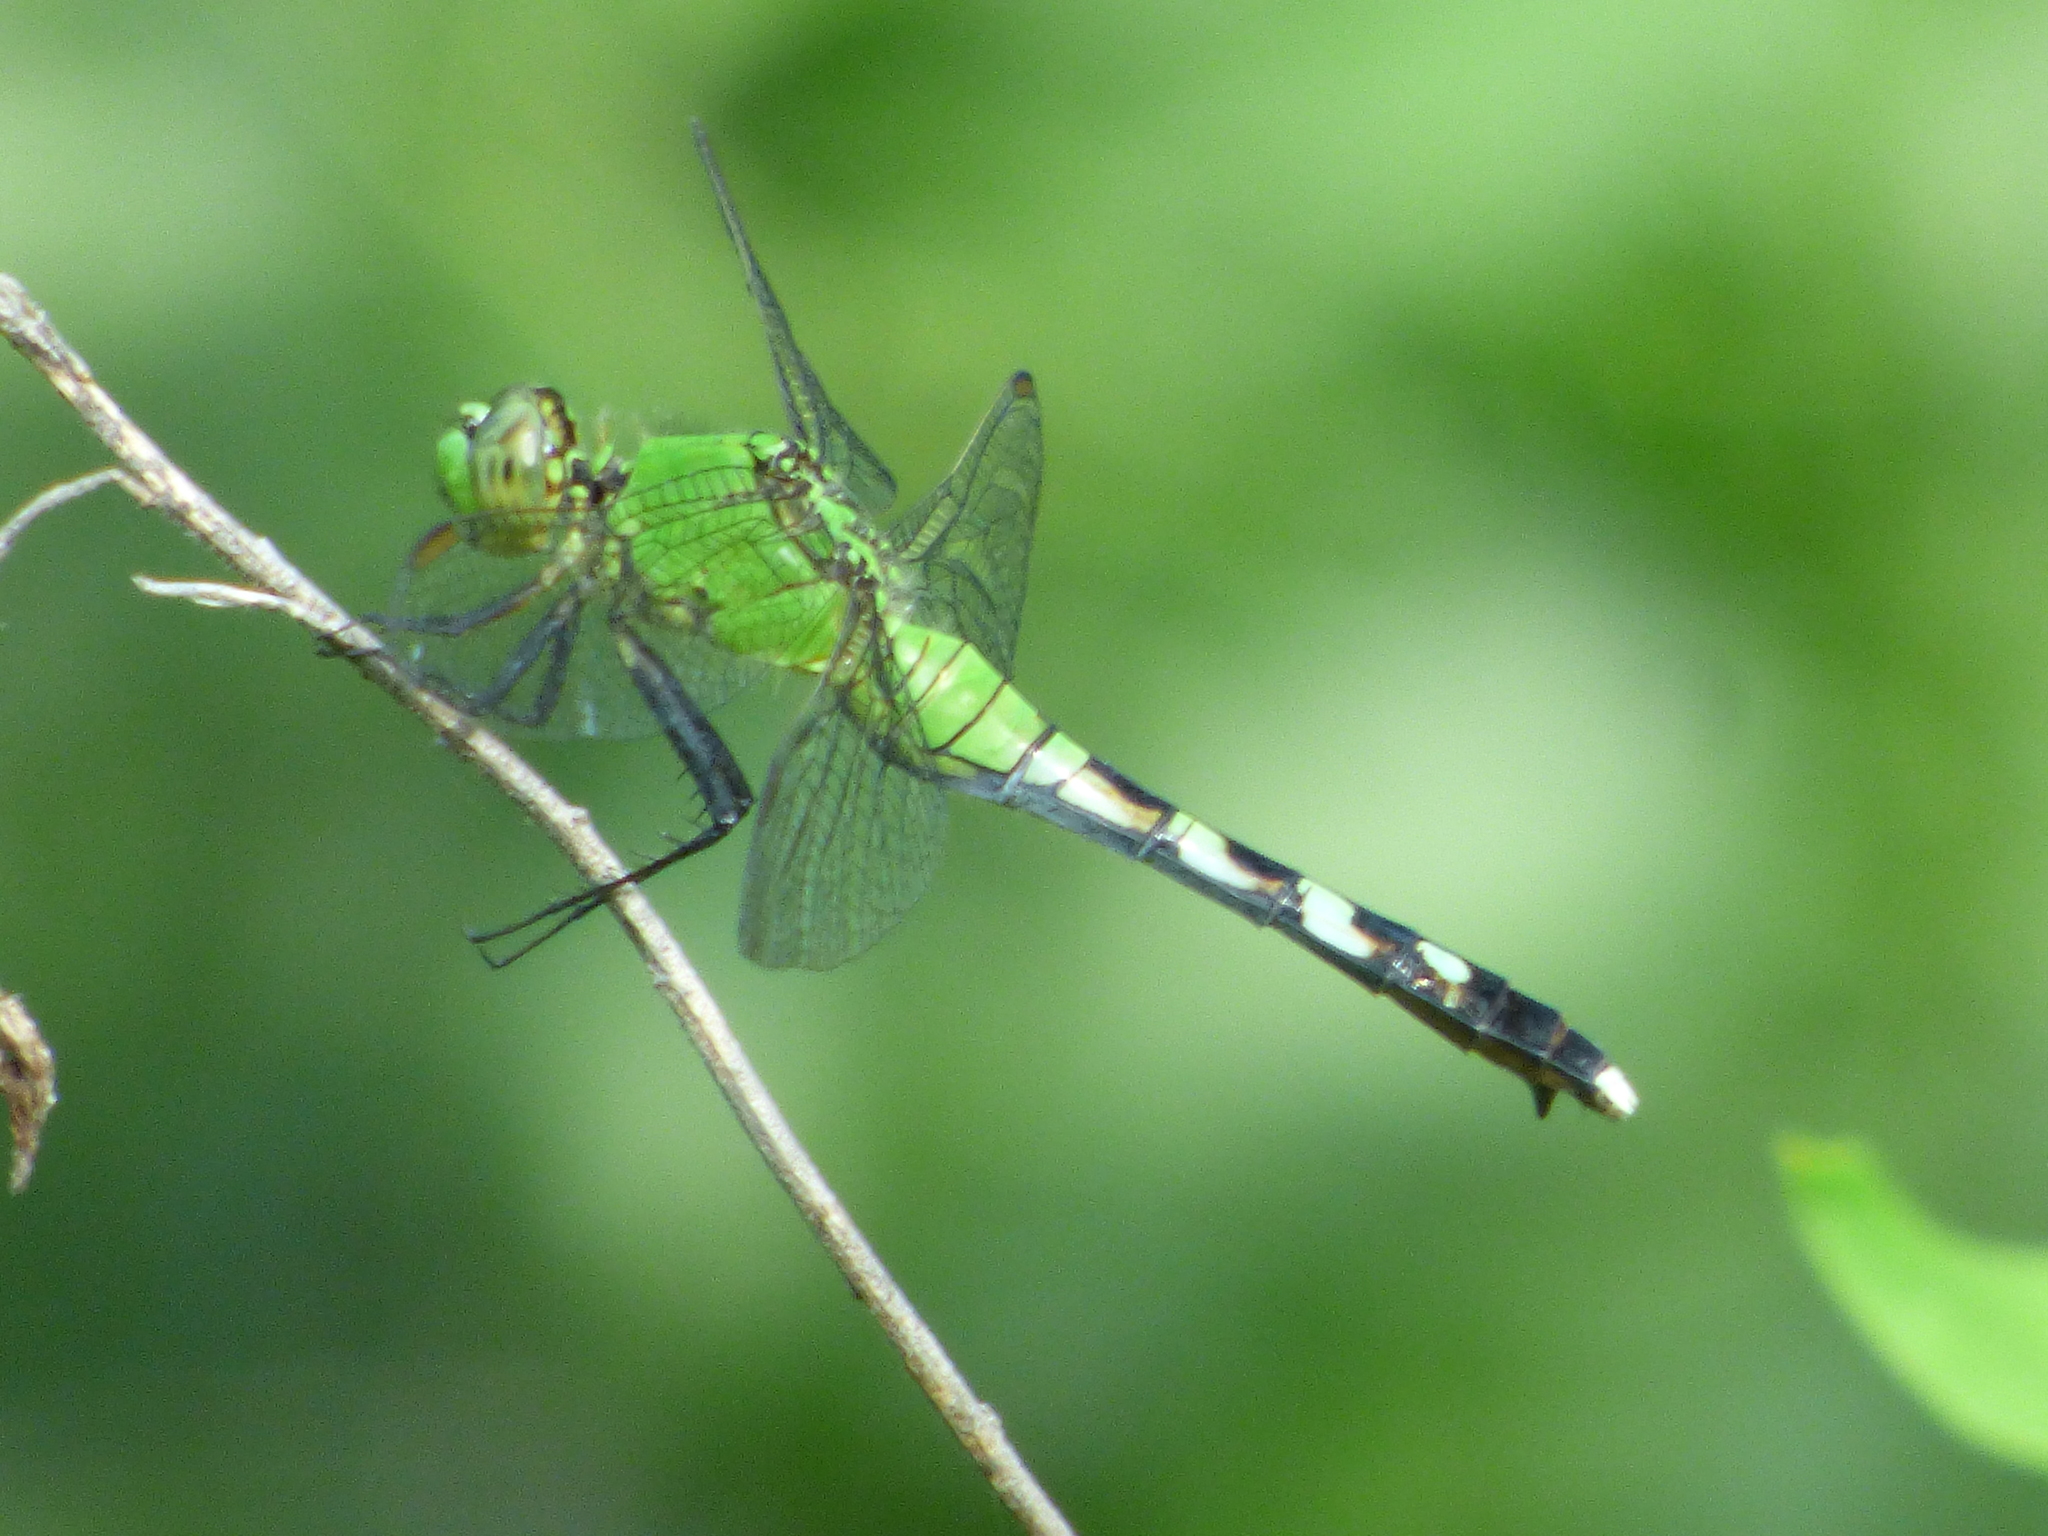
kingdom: Animalia
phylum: Arthropoda
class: Insecta
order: Odonata
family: Libellulidae
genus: Erythemis
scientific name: Erythemis simplicicollis
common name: Eastern pondhawk
